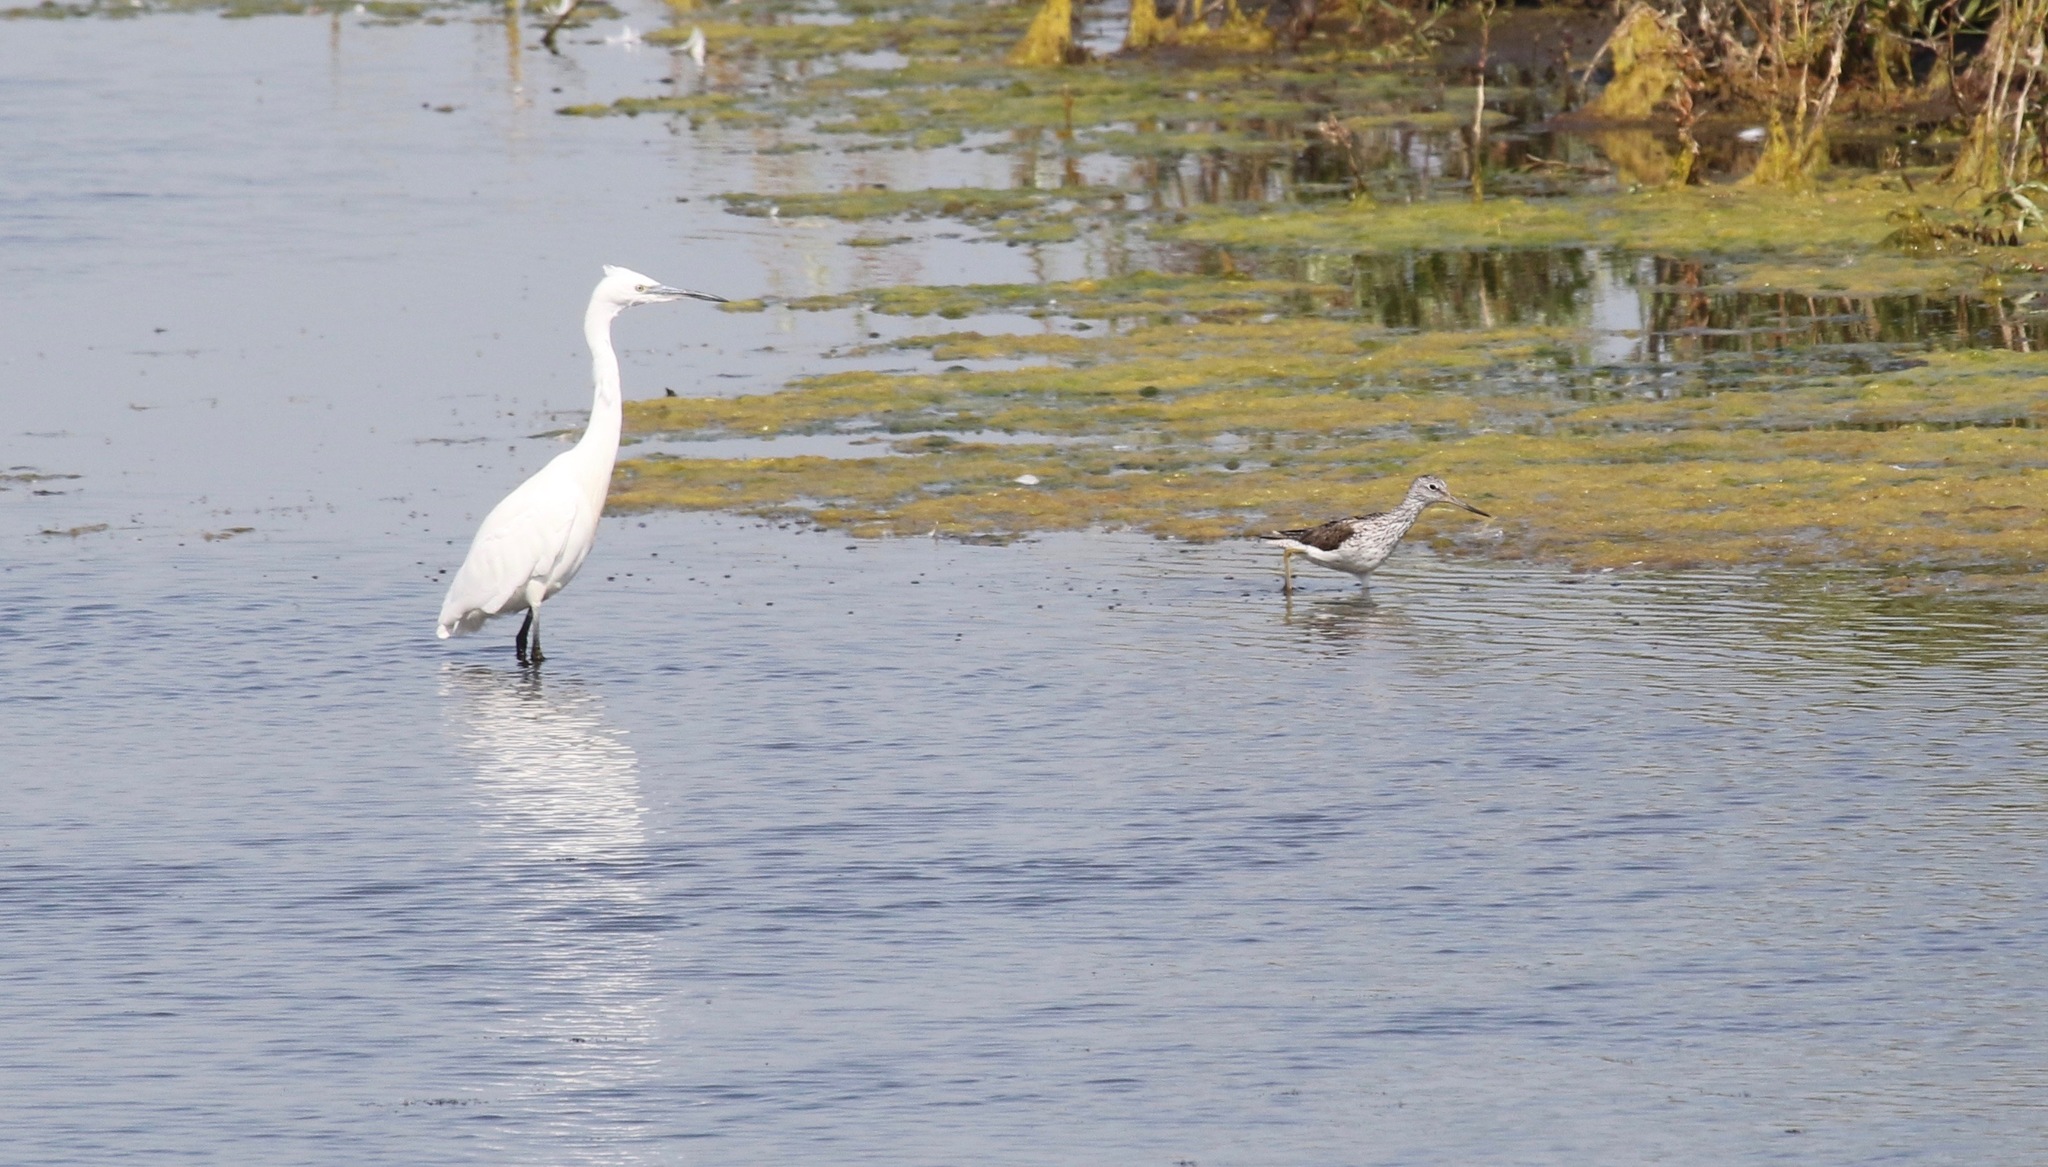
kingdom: Animalia
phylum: Chordata
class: Aves
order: Charadriiformes
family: Scolopacidae
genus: Tringa
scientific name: Tringa nebularia
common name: Common greenshank
